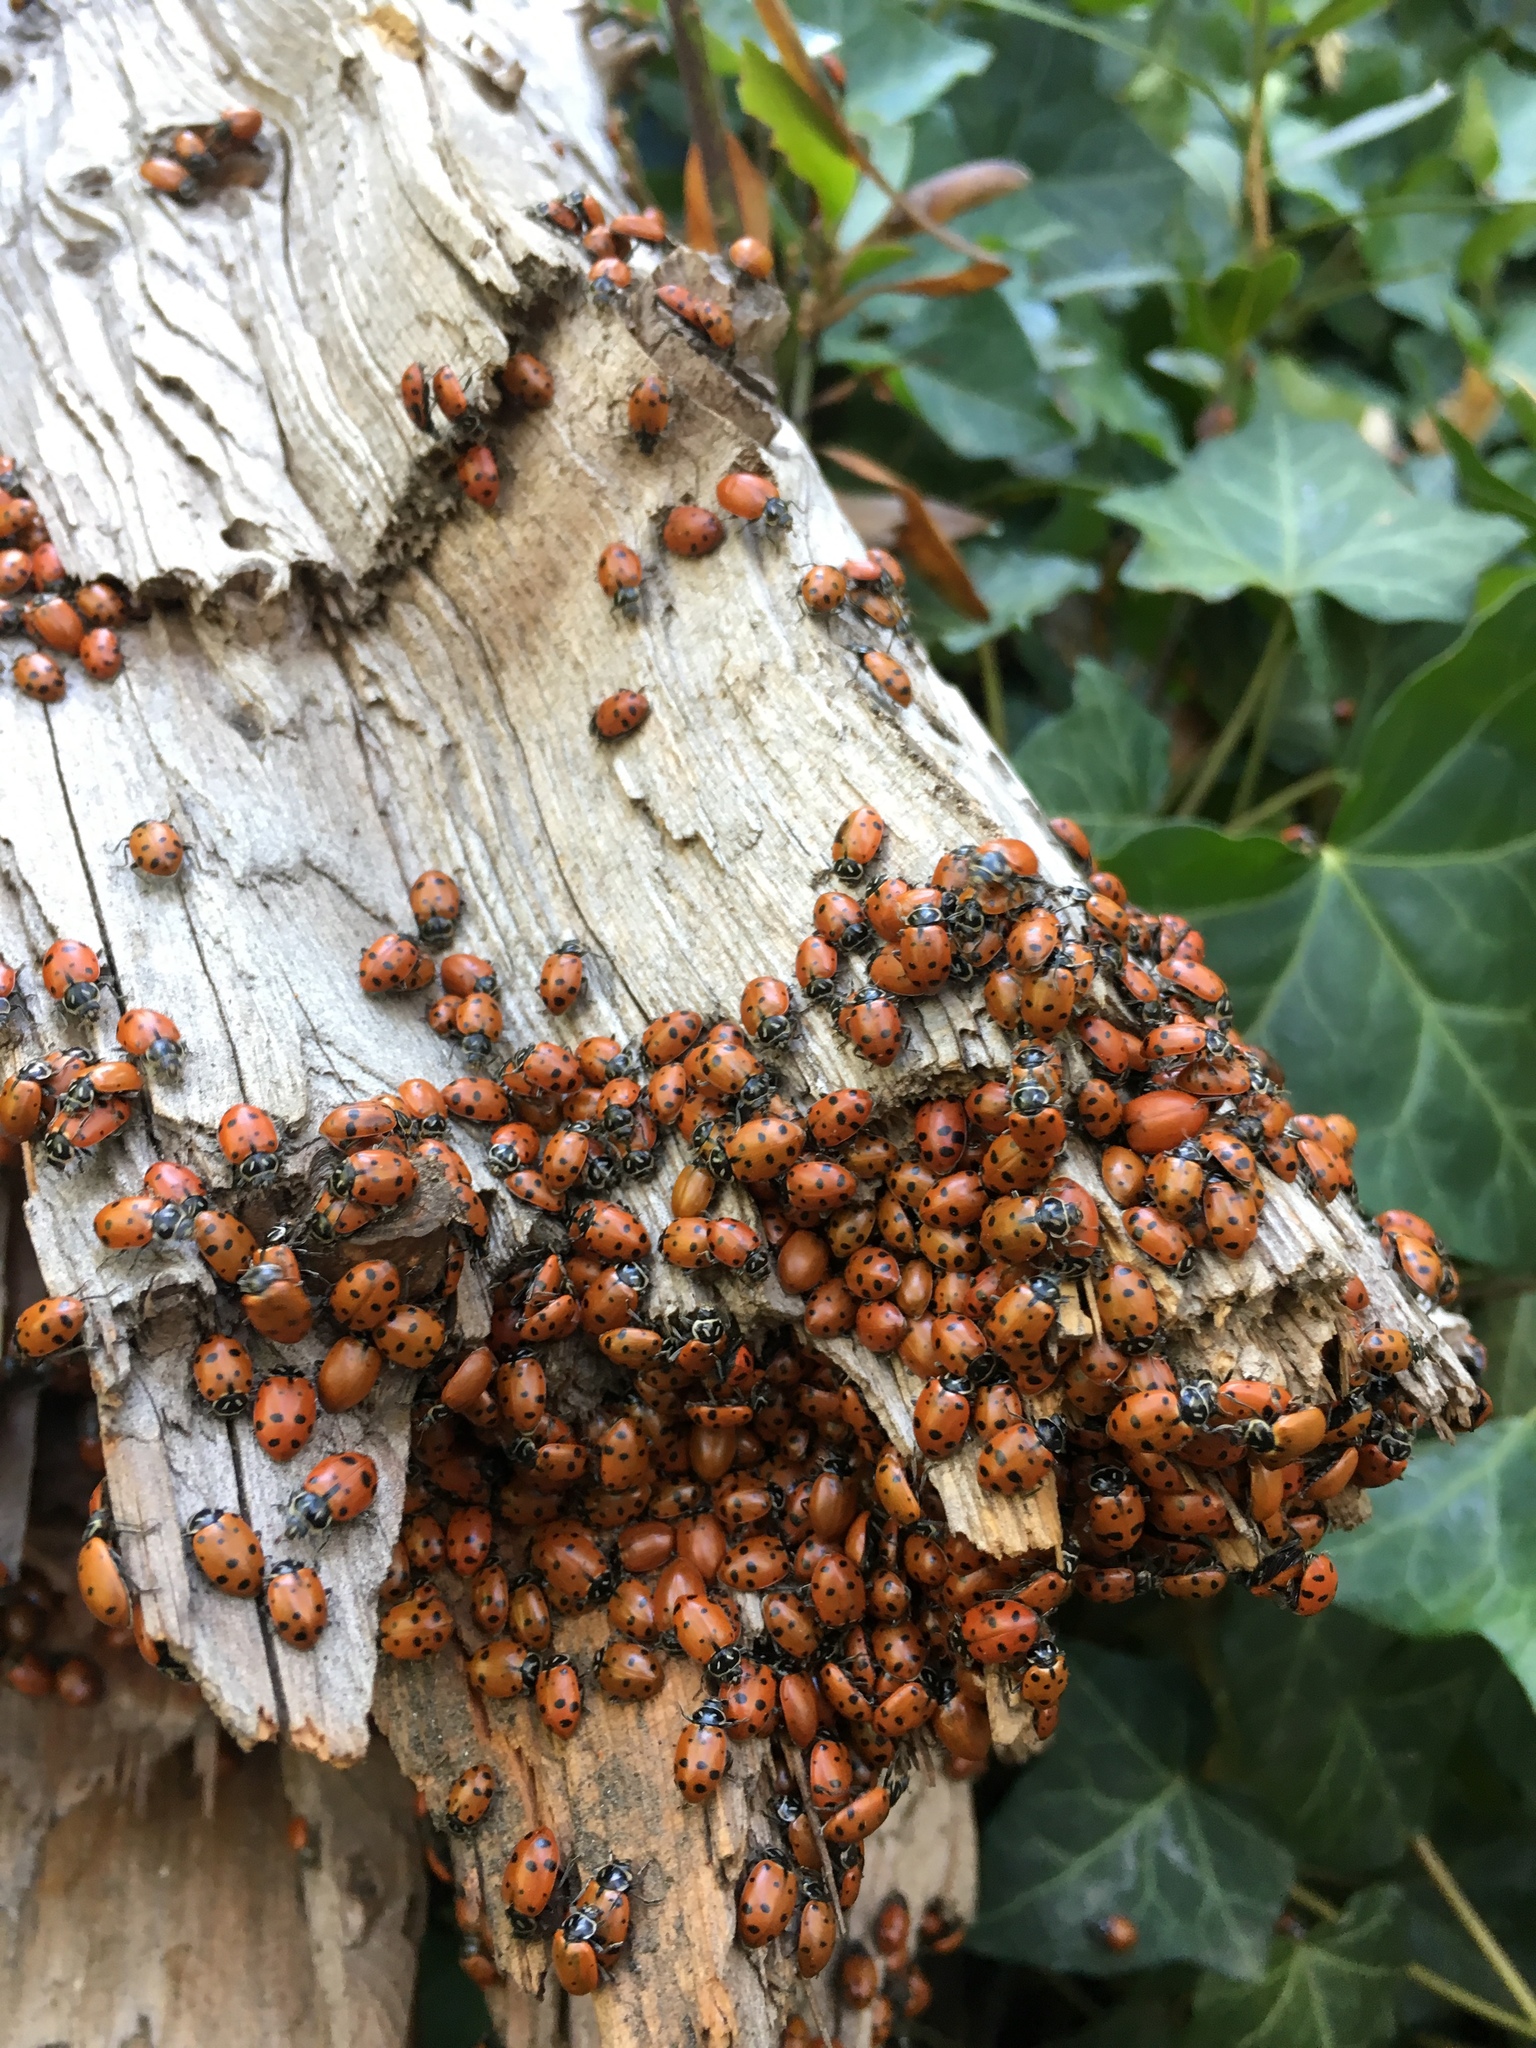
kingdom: Animalia
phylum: Arthropoda
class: Insecta
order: Coleoptera
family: Coccinellidae
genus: Hippodamia
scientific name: Hippodamia convergens
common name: Convergent lady beetle
